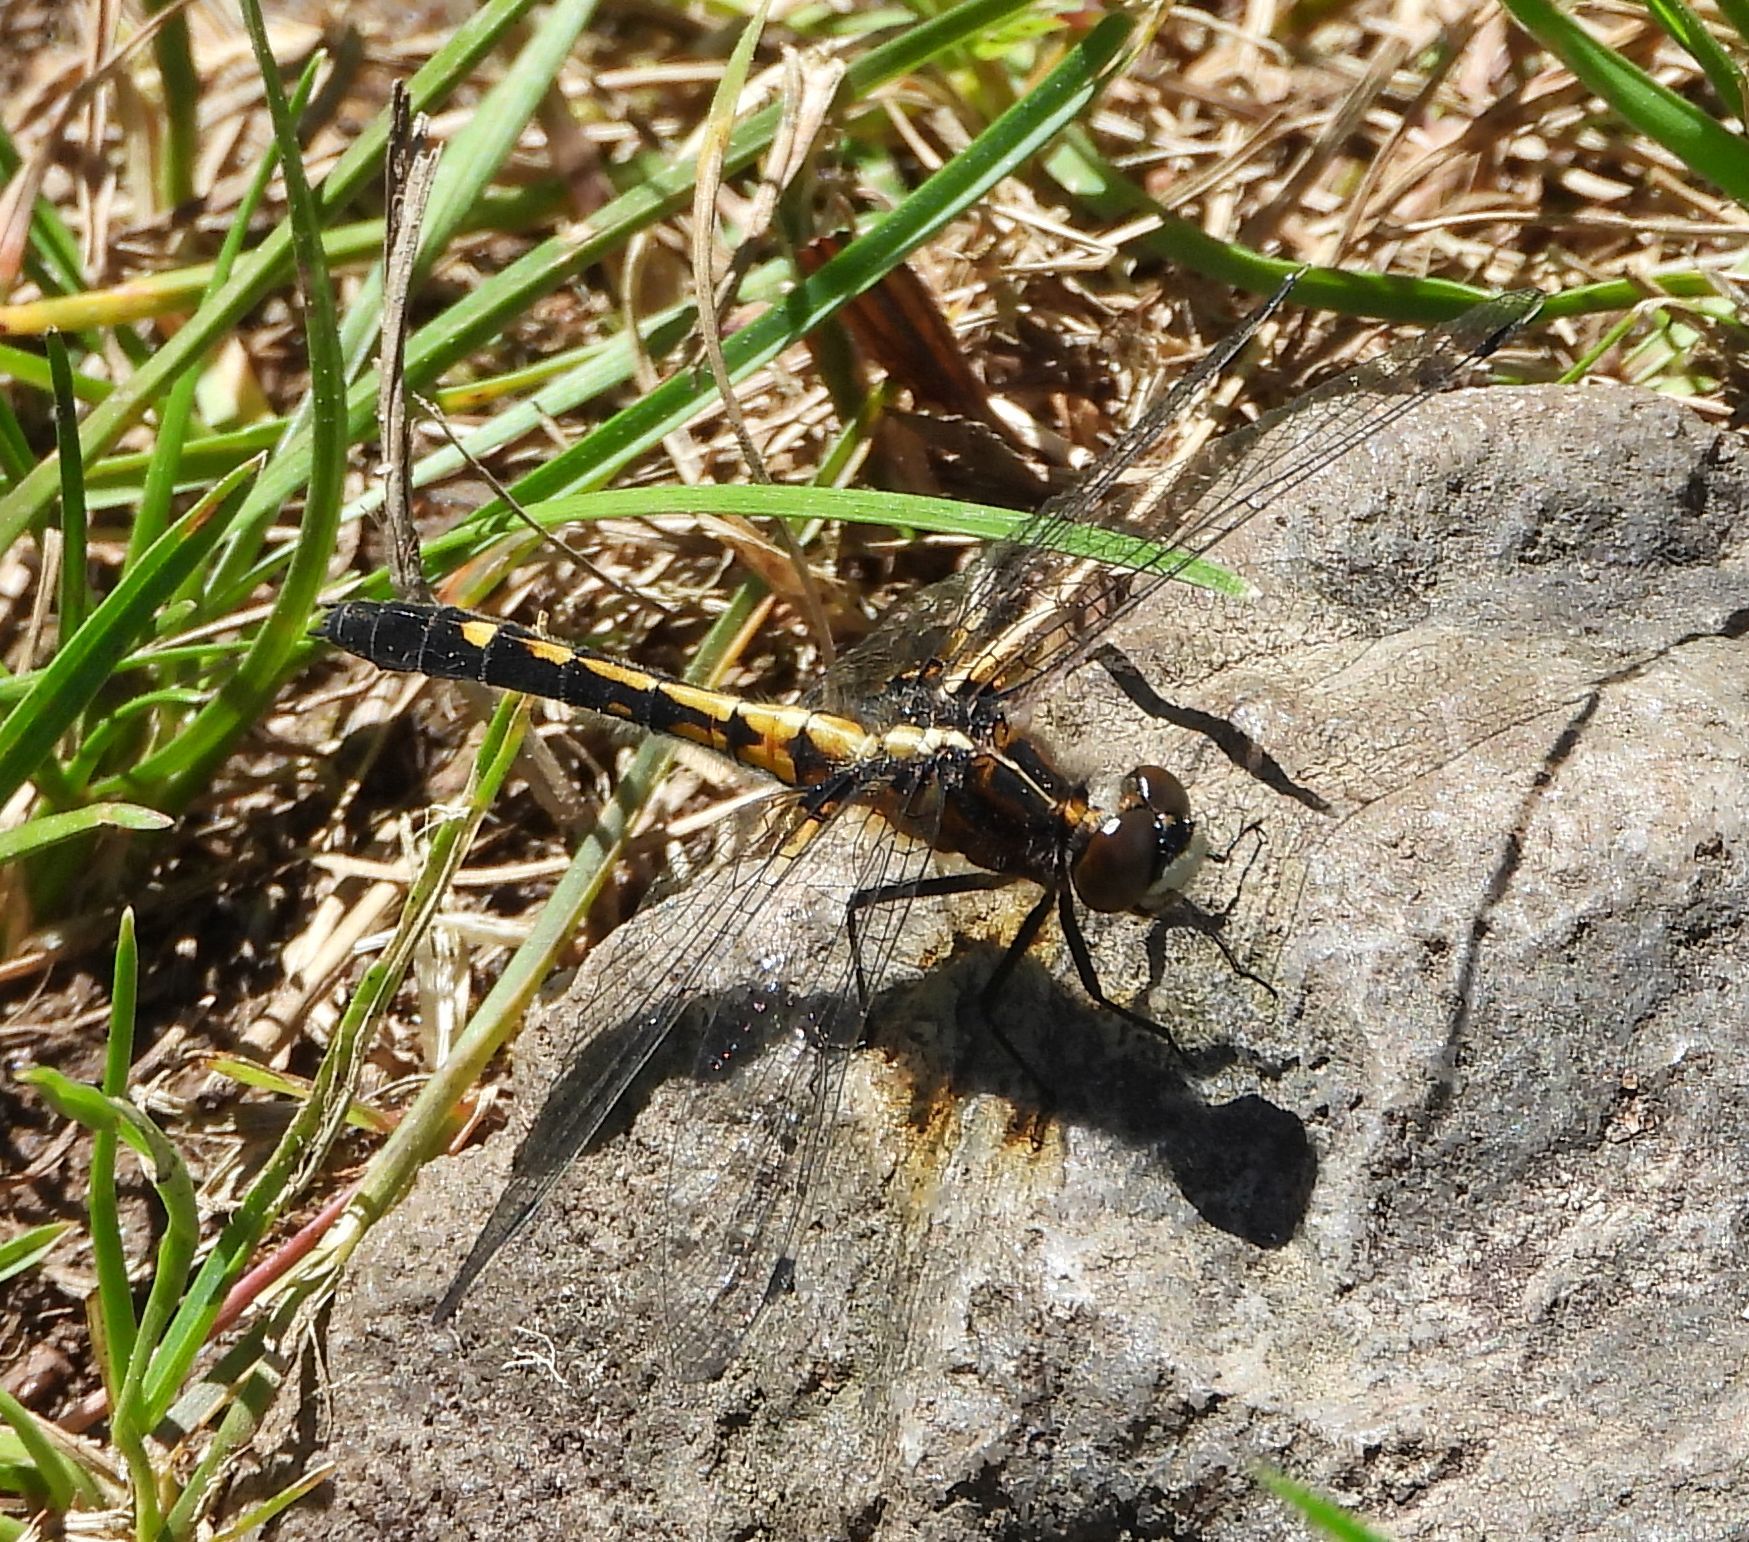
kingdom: Animalia
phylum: Arthropoda
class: Insecta
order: Odonata
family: Libellulidae
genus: Leucorrhinia
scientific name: Leucorrhinia intacta
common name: Dot-tailed whiteface
